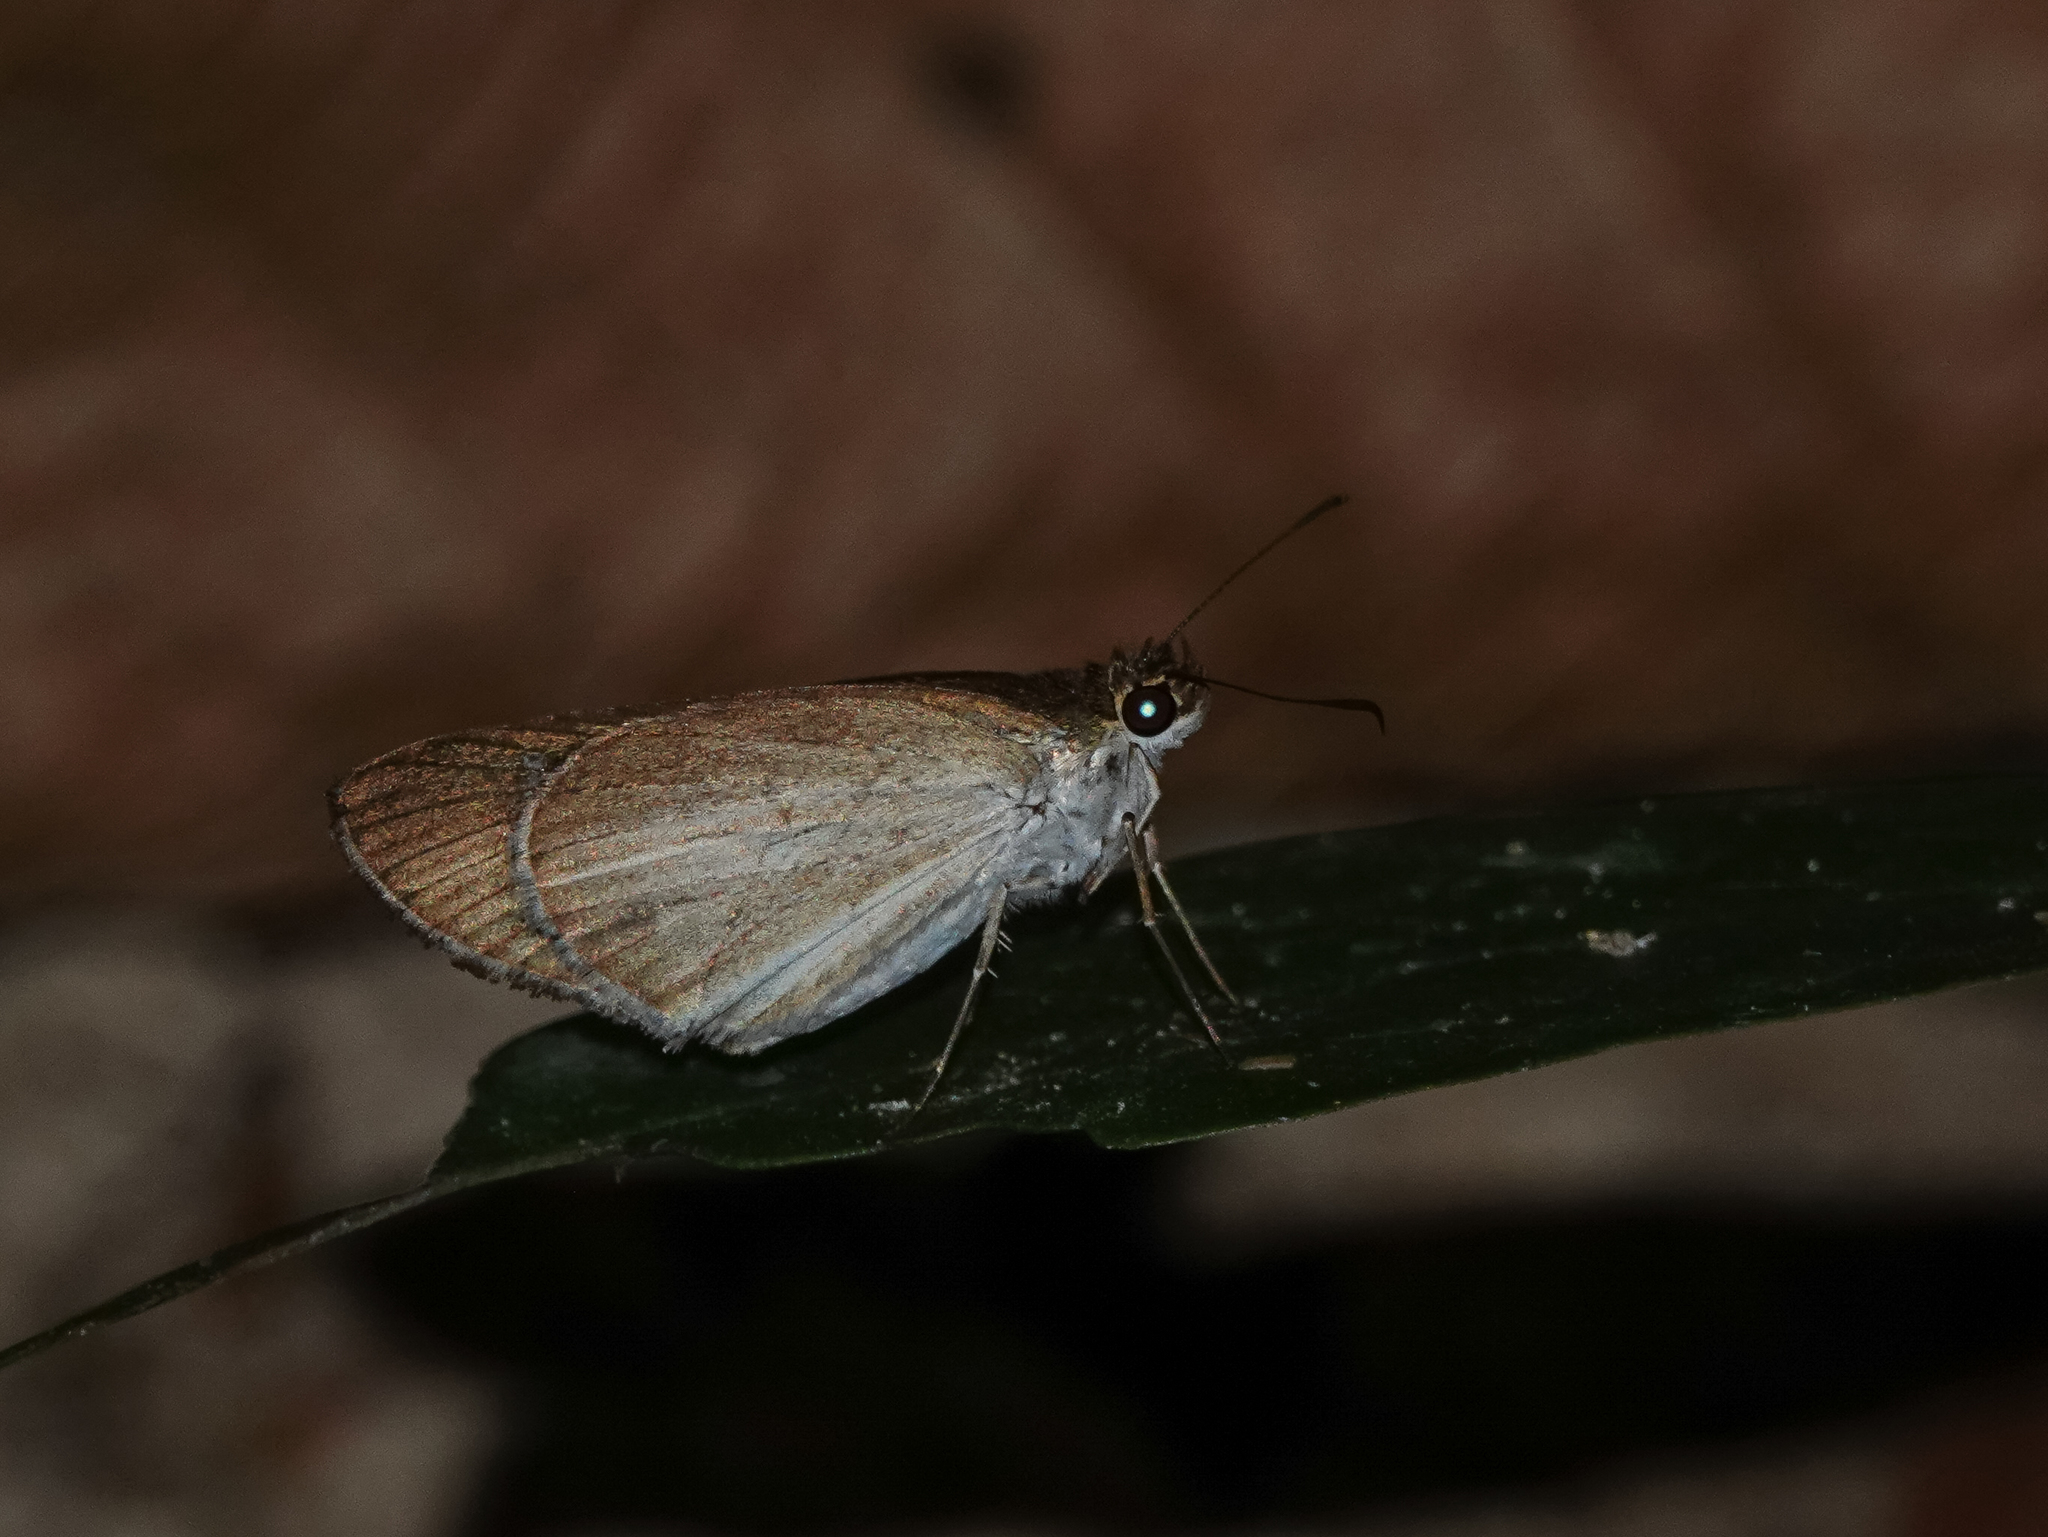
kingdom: Animalia
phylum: Arthropoda
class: Insecta
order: Lepidoptera
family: Hesperiidae
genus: Suada
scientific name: Suada swerga
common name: Grass bob
